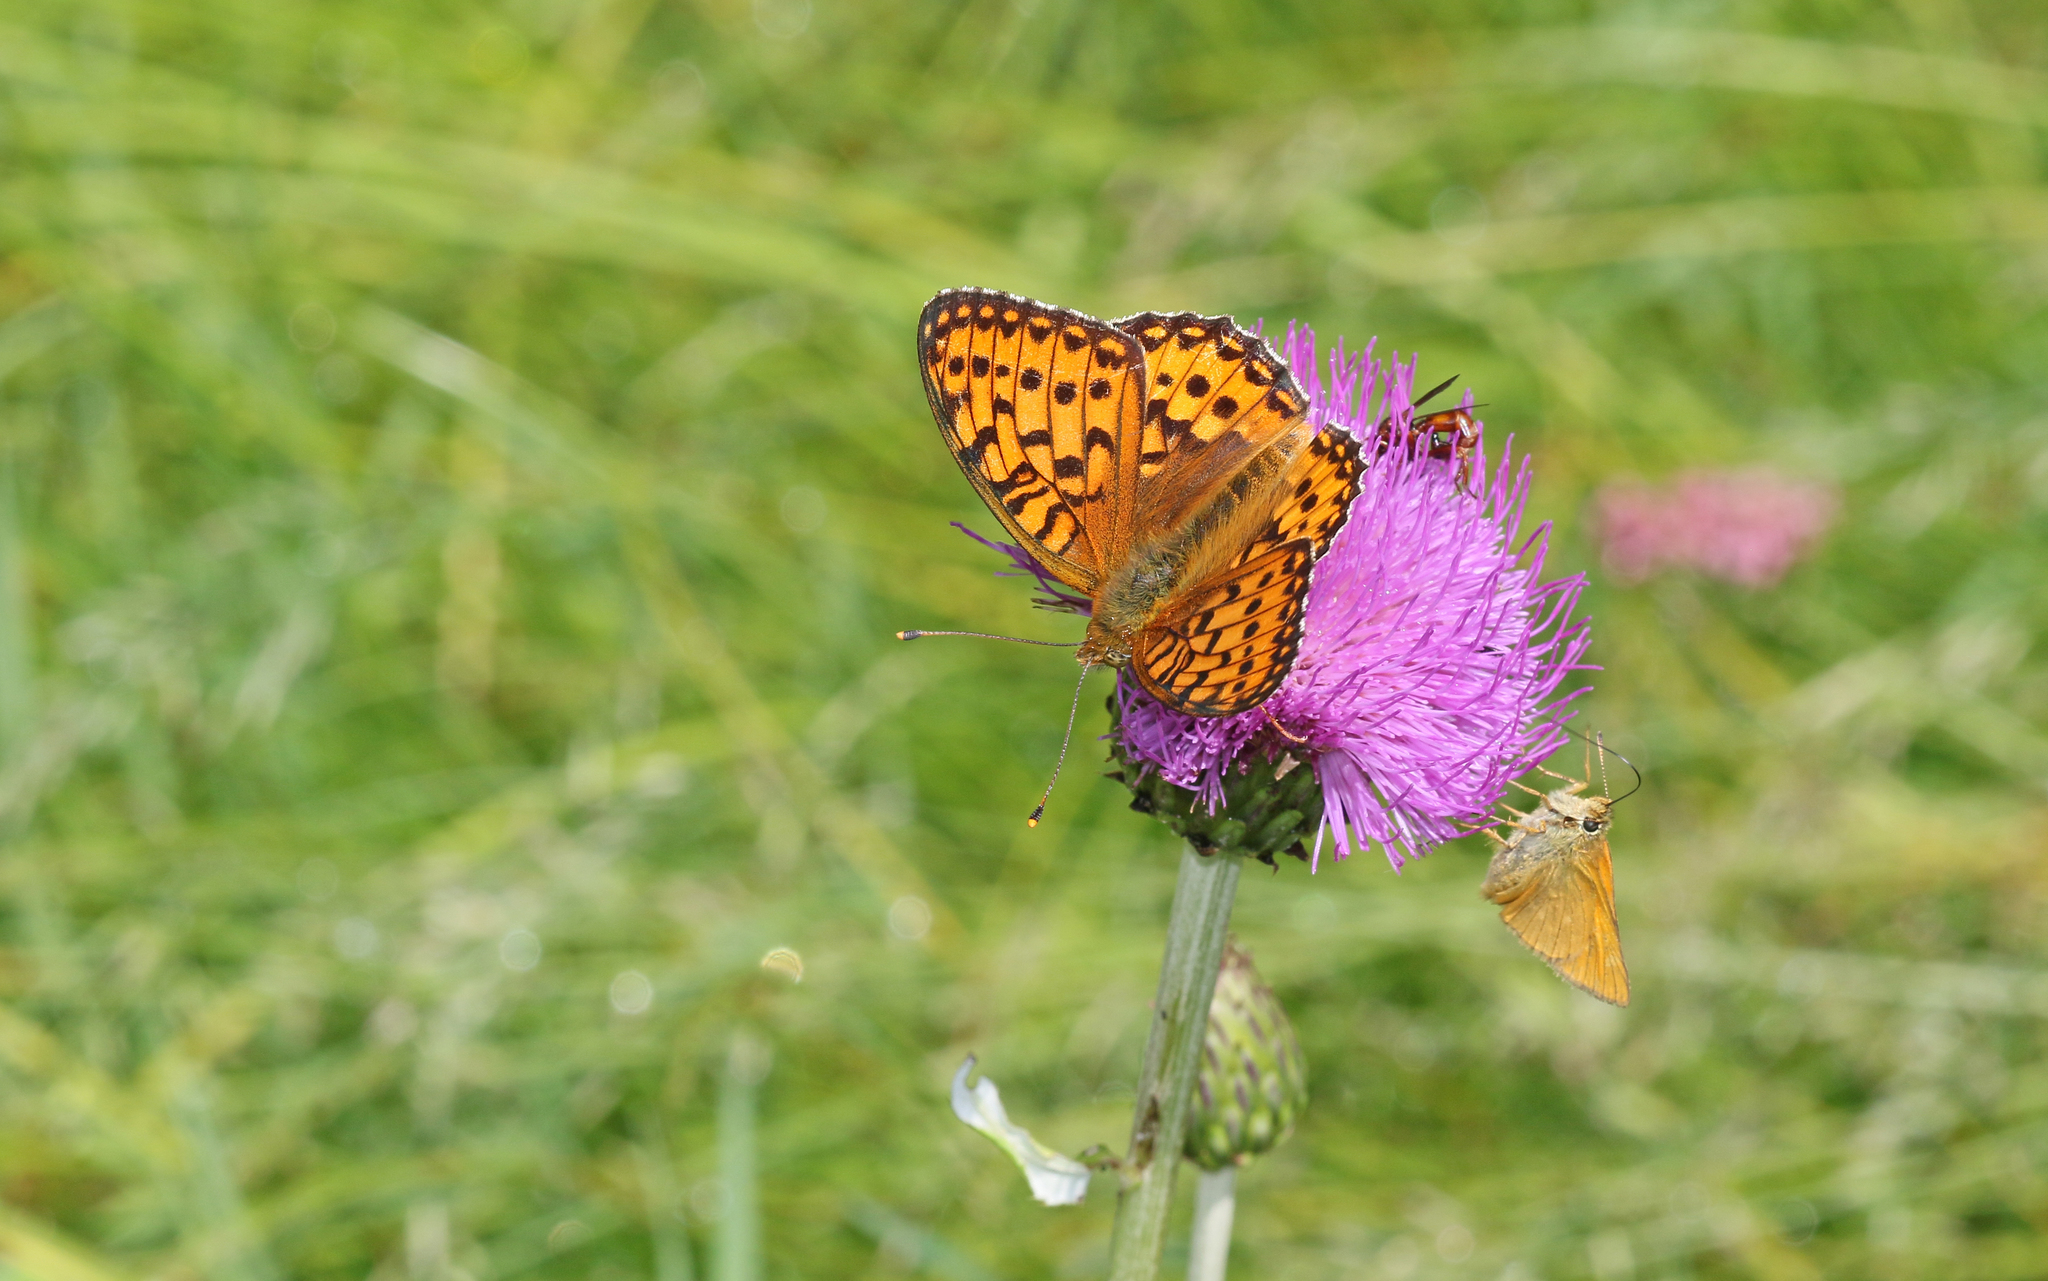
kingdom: Animalia
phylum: Arthropoda
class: Insecta
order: Lepidoptera
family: Nymphalidae
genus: Speyeria
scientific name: Speyeria aglaja
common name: Dark green fritillary
